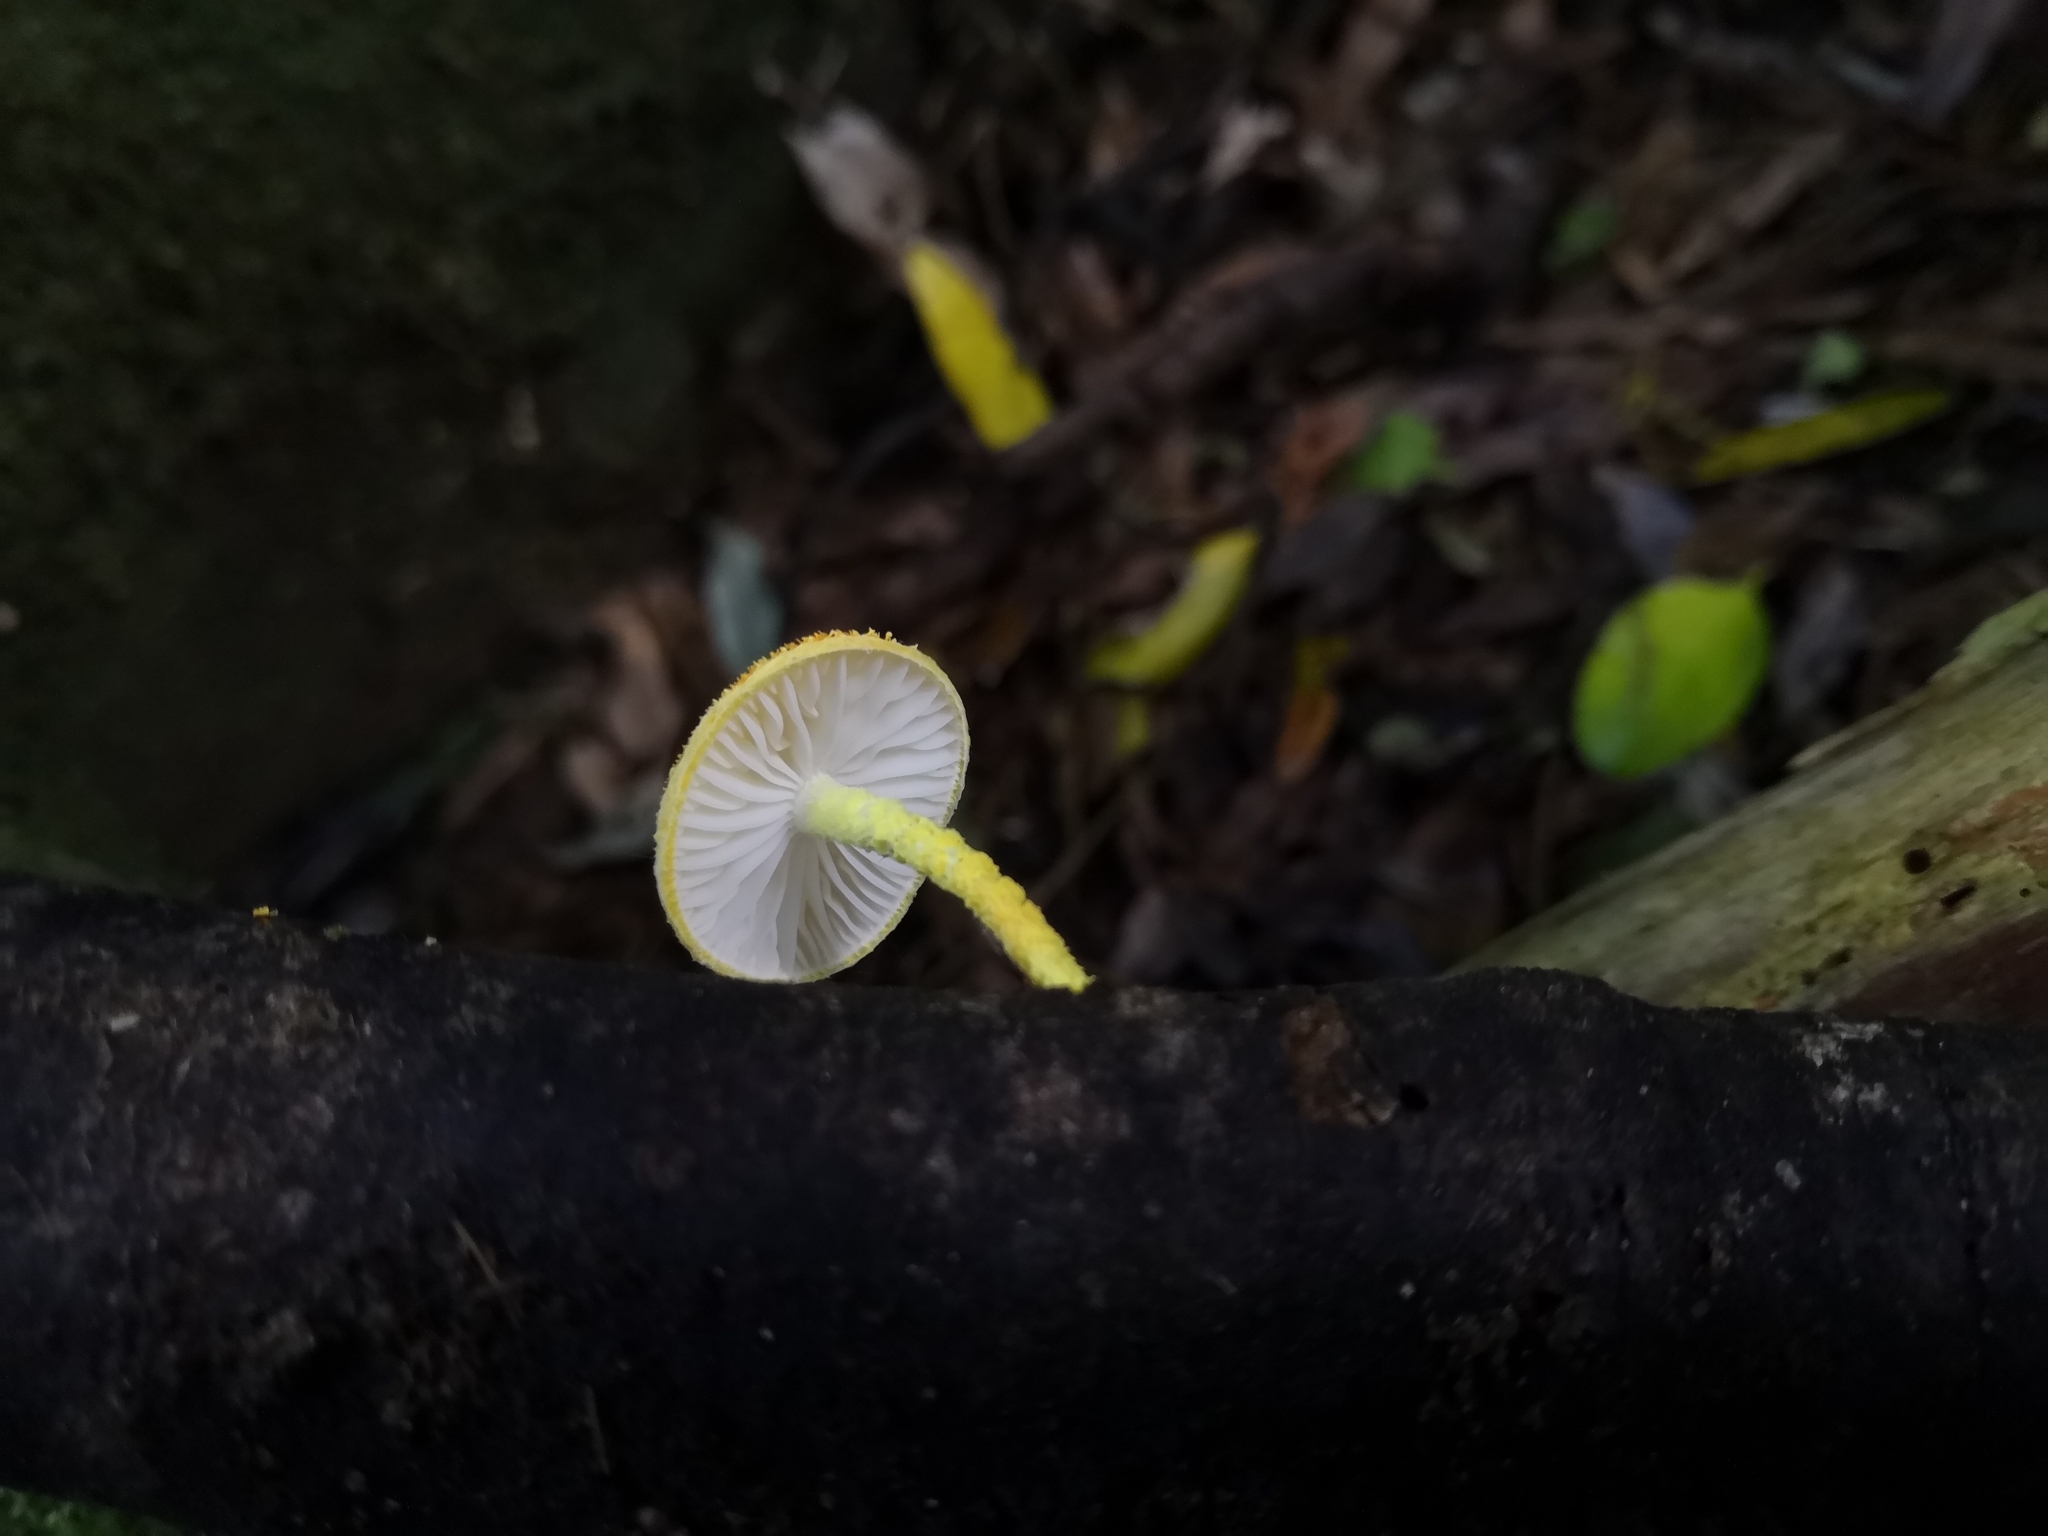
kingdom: Fungi
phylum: Basidiomycota
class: Agaricomycetes
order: Agaricales
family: Physalacriaceae
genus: Cyptotrama
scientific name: Cyptotrama asprata
